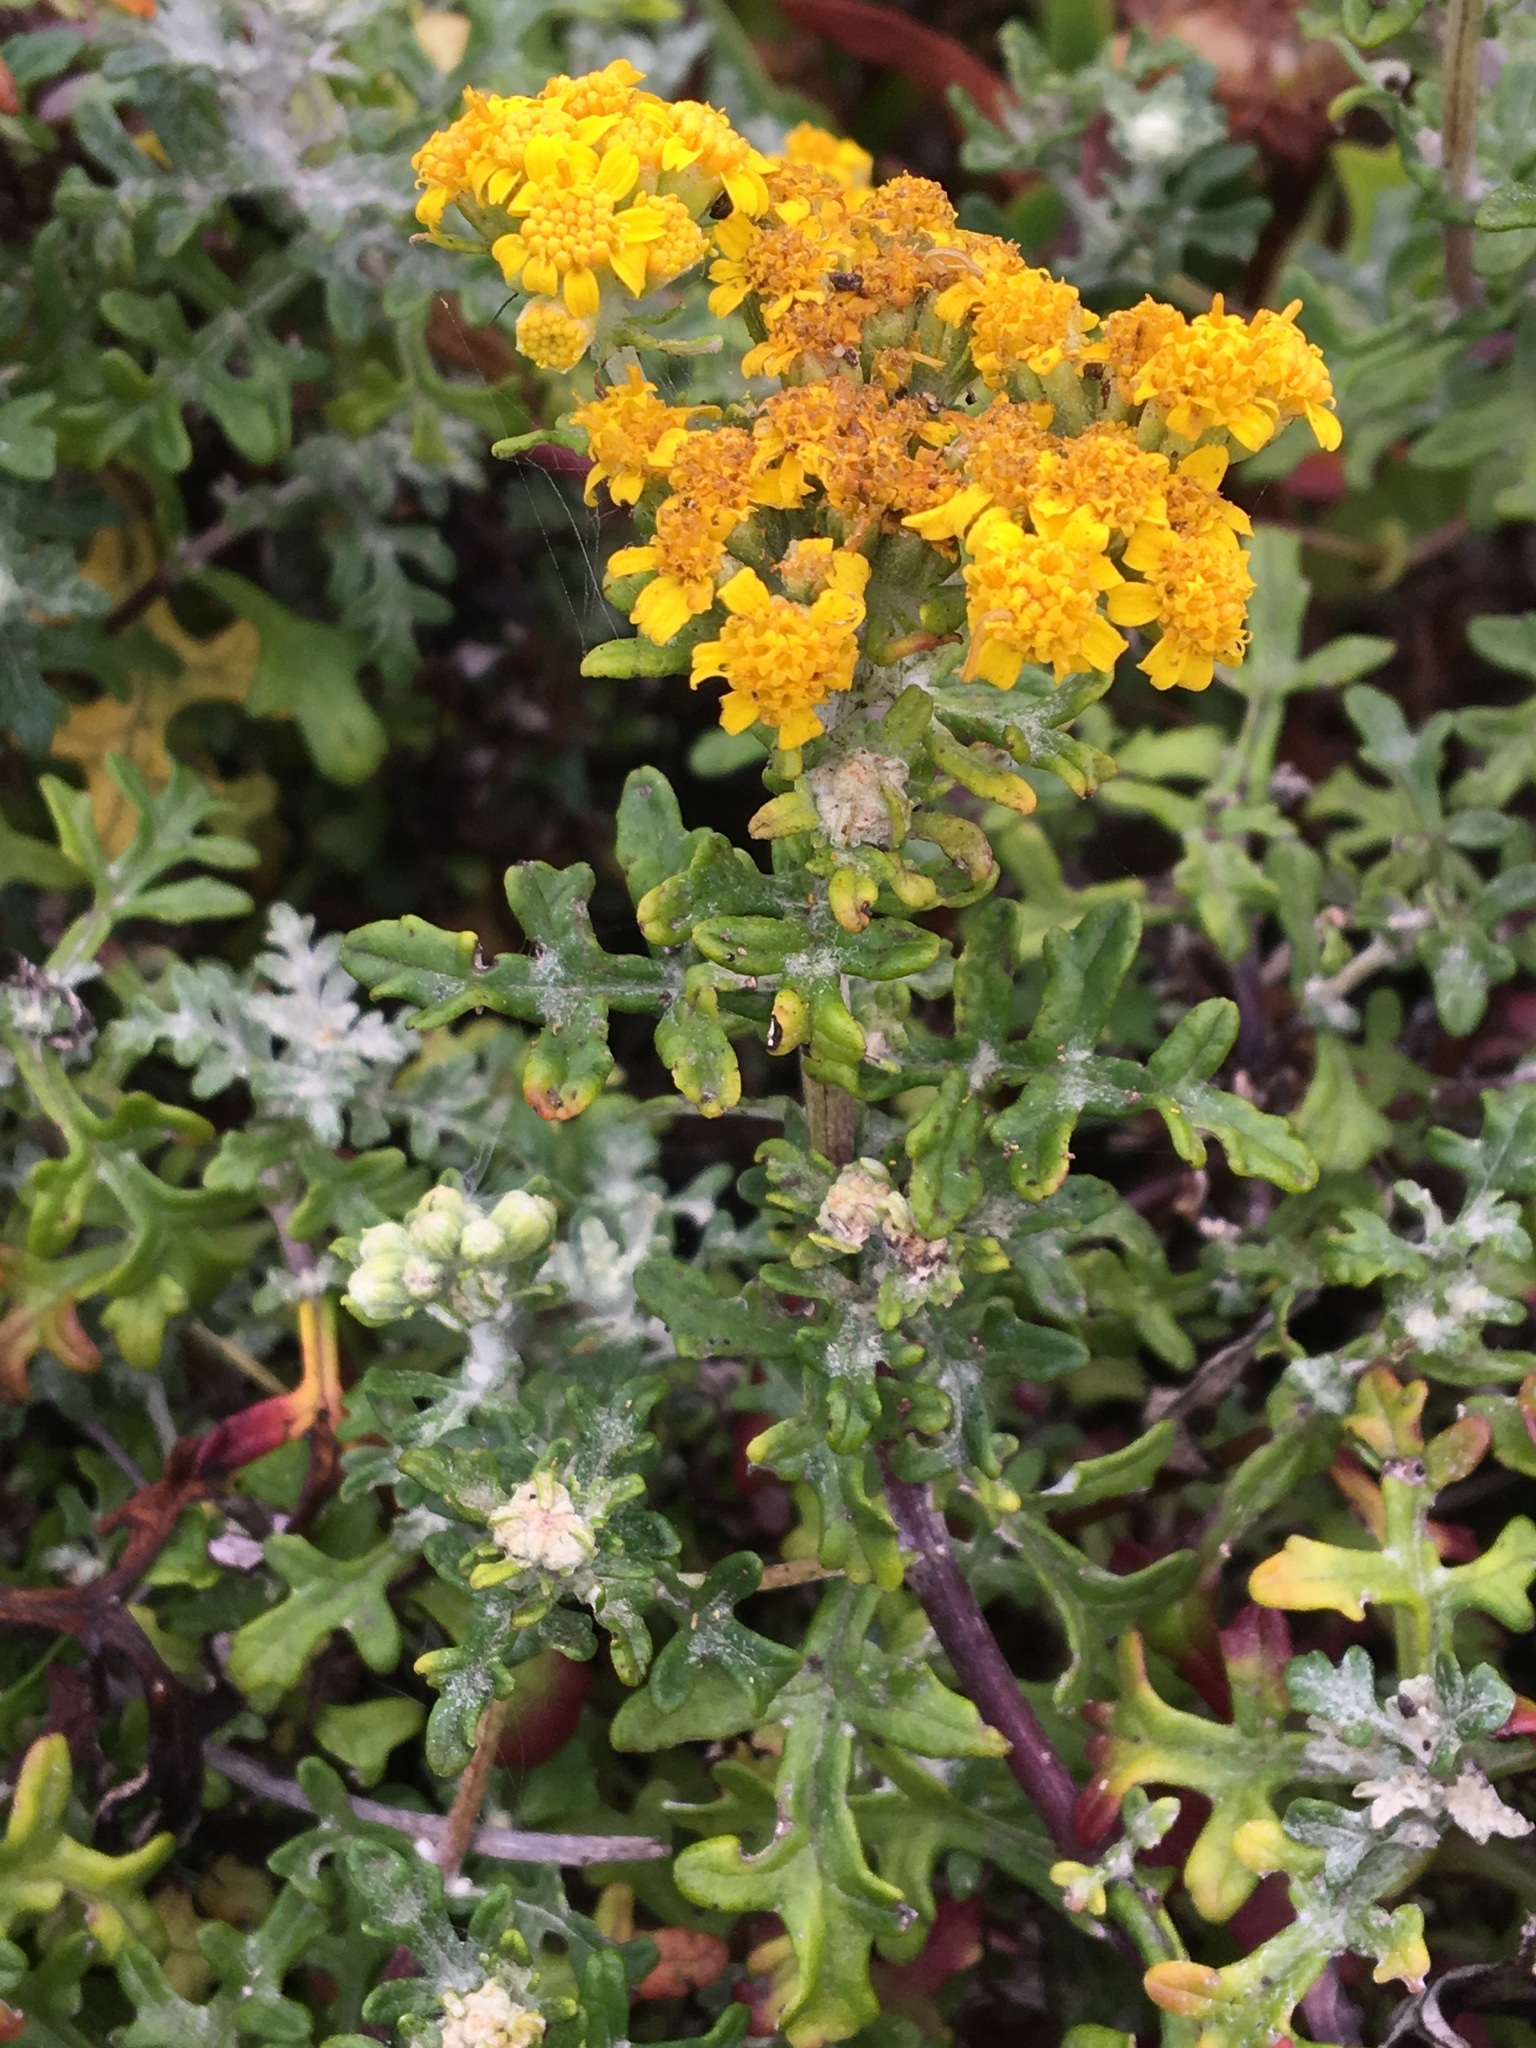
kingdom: Plantae
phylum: Tracheophyta
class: Magnoliopsida
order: Asterales
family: Asteraceae
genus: Eriophyllum
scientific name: Eriophyllum staechadifolium
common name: Lizardtail
